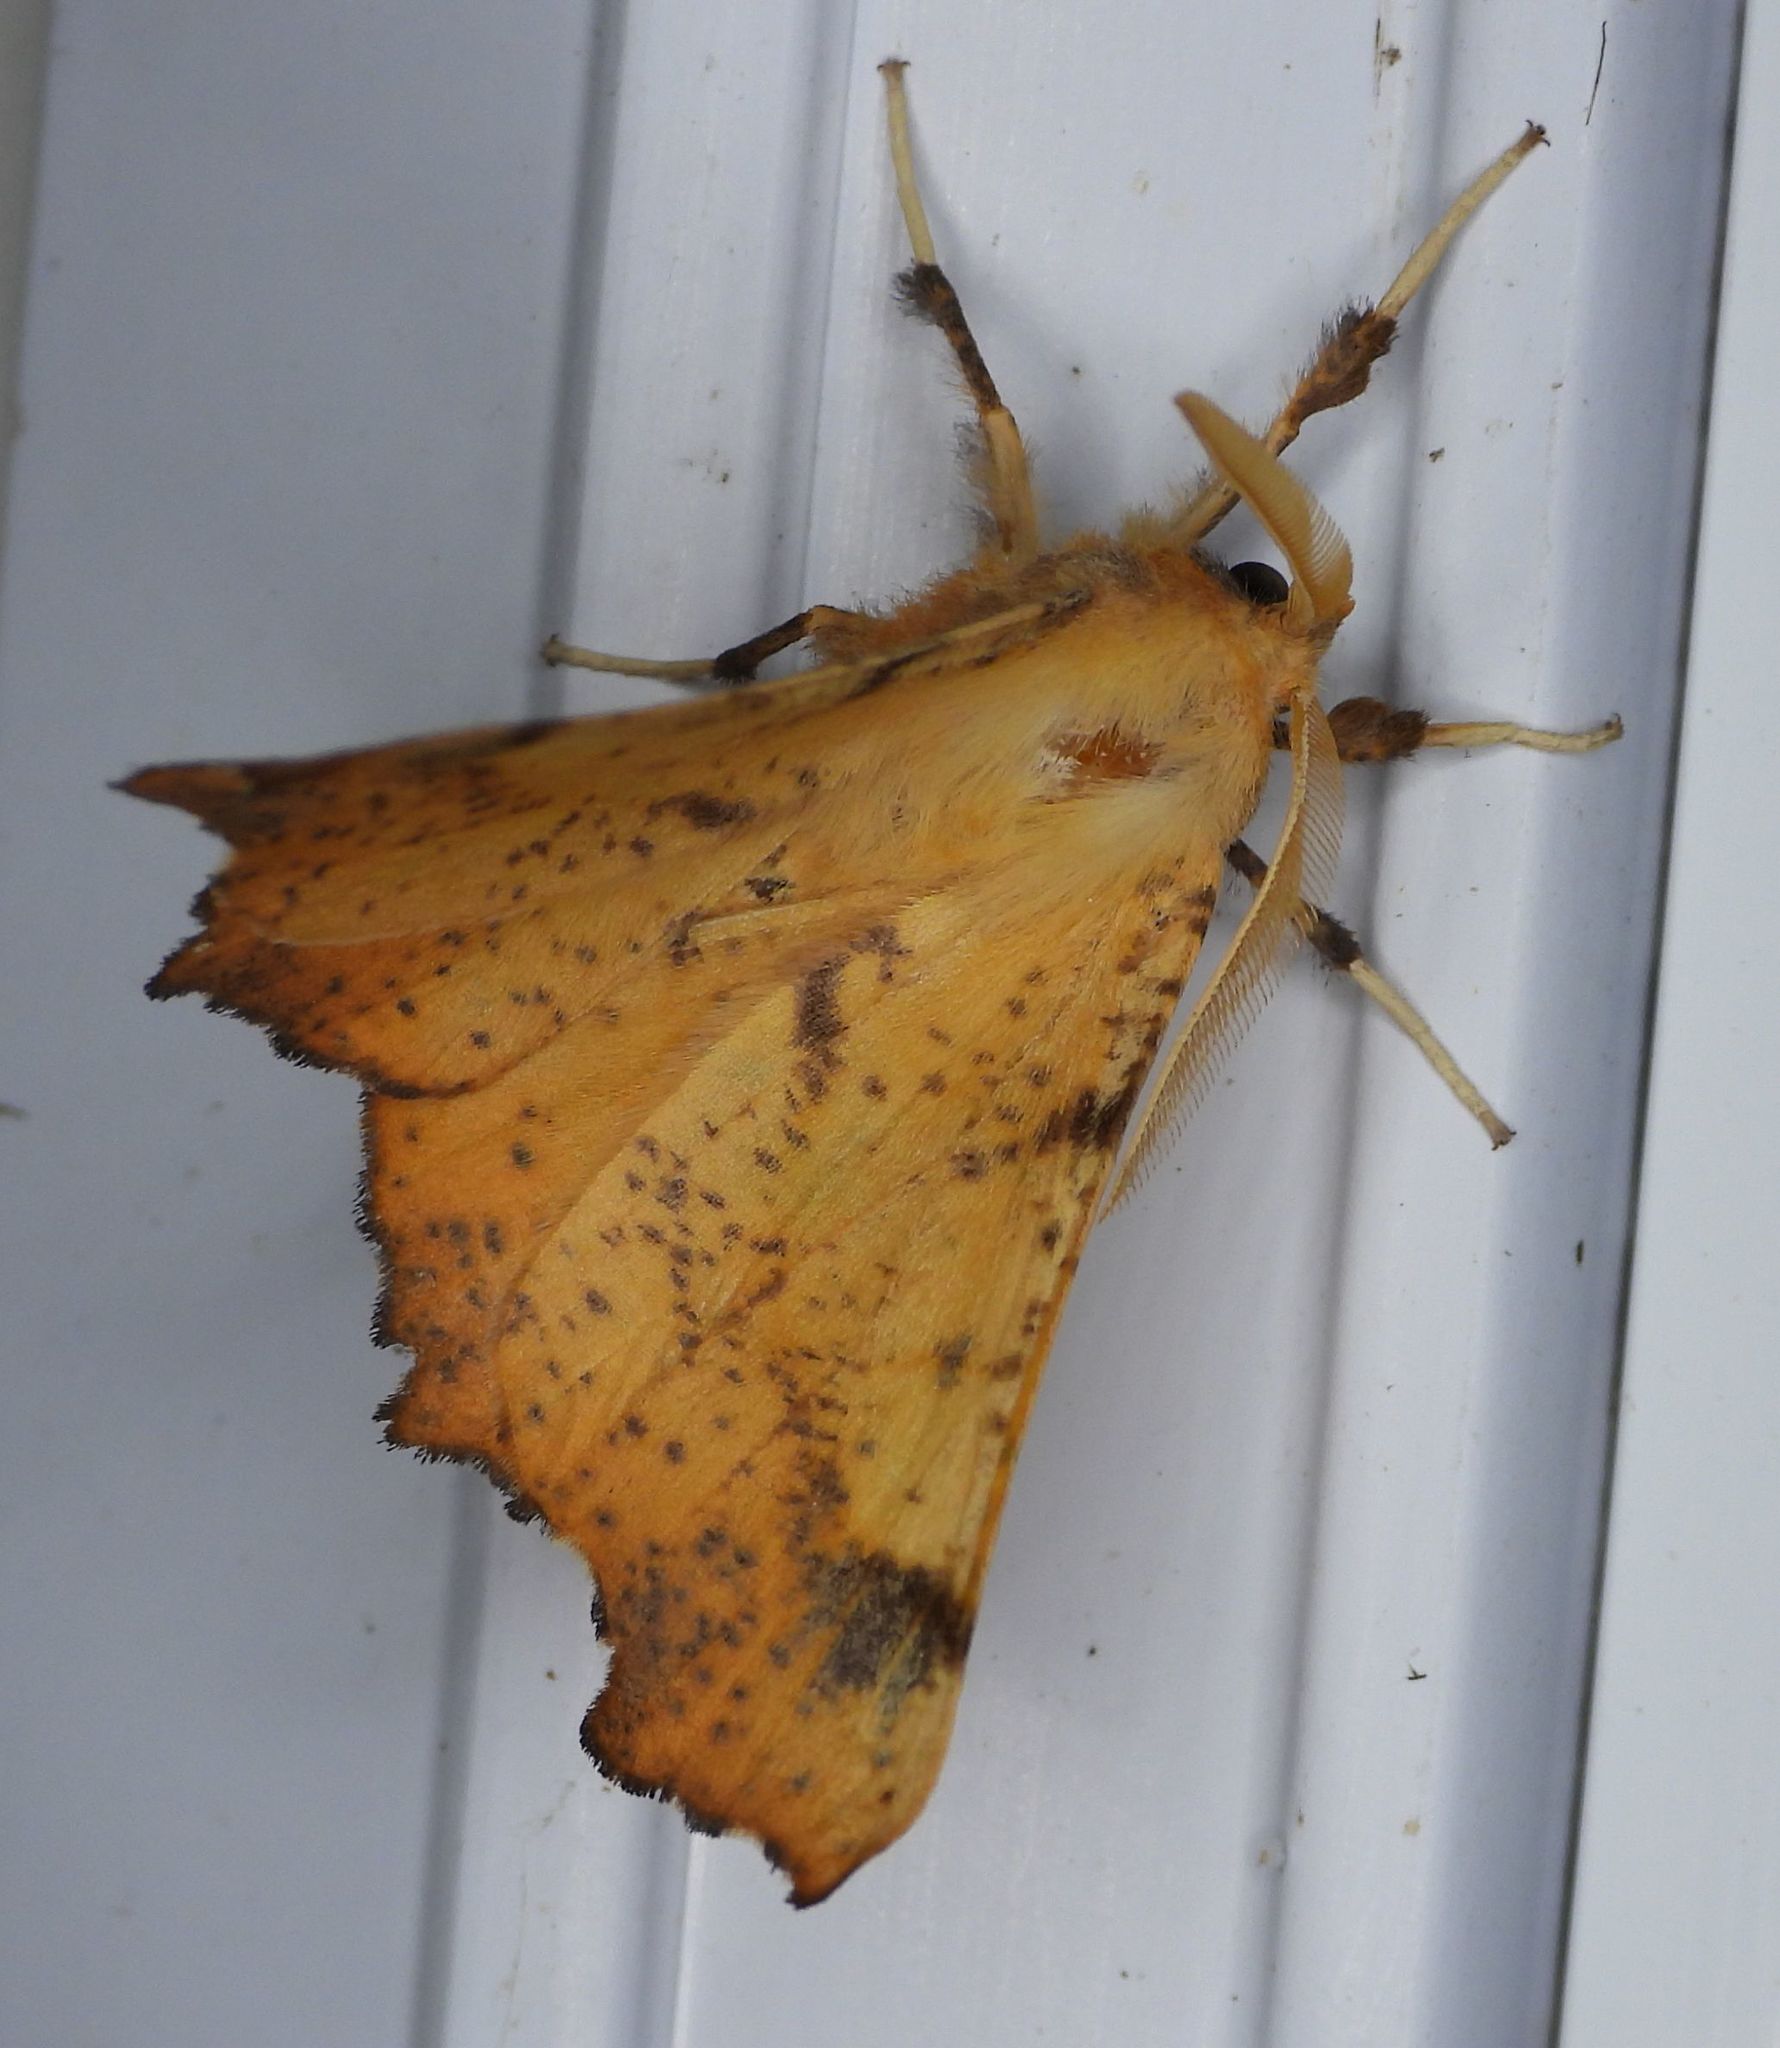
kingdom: Animalia
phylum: Arthropoda
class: Insecta
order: Lepidoptera
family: Geometridae
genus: Ennomos
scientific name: Ennomos magnaria
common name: Maple spanworm
